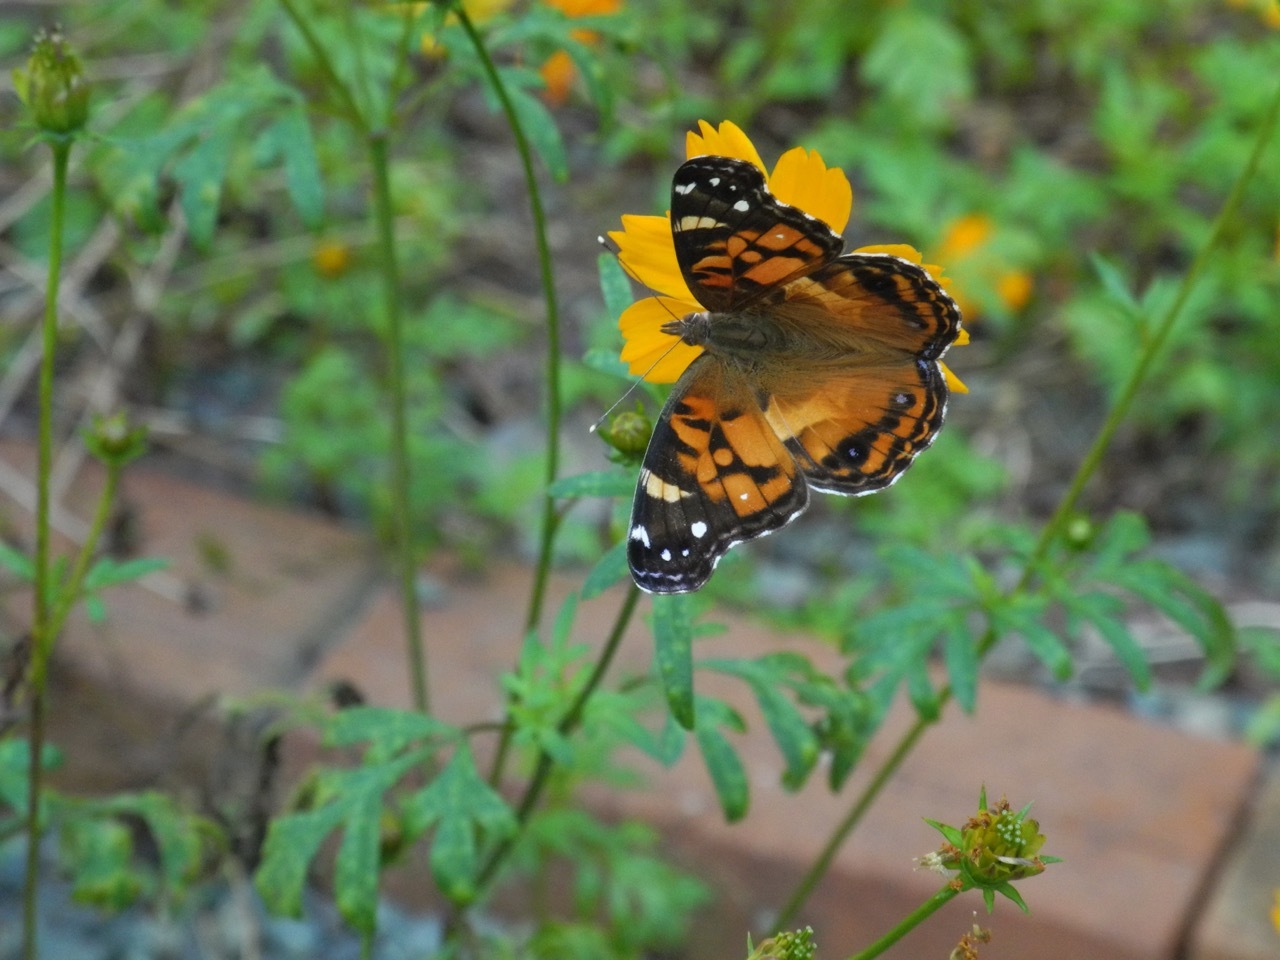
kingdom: Animalia
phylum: Arthropoda
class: Insecta
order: Lepidoptera
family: Nymphalidae
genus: Vanessa
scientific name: Vanessa virginiensis
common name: American lady
